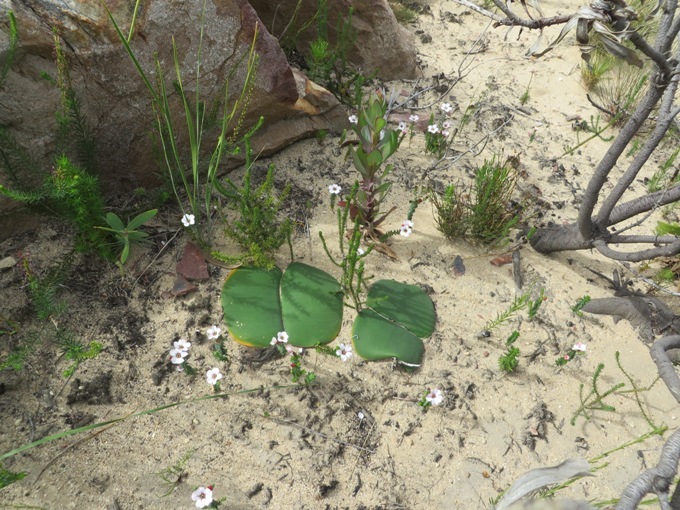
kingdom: Plantae
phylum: Tracheophyta
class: Liliopsida
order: Asparagales
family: Amaryllidaceae
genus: Haemanthus
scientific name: Haemanthus sanguineus
